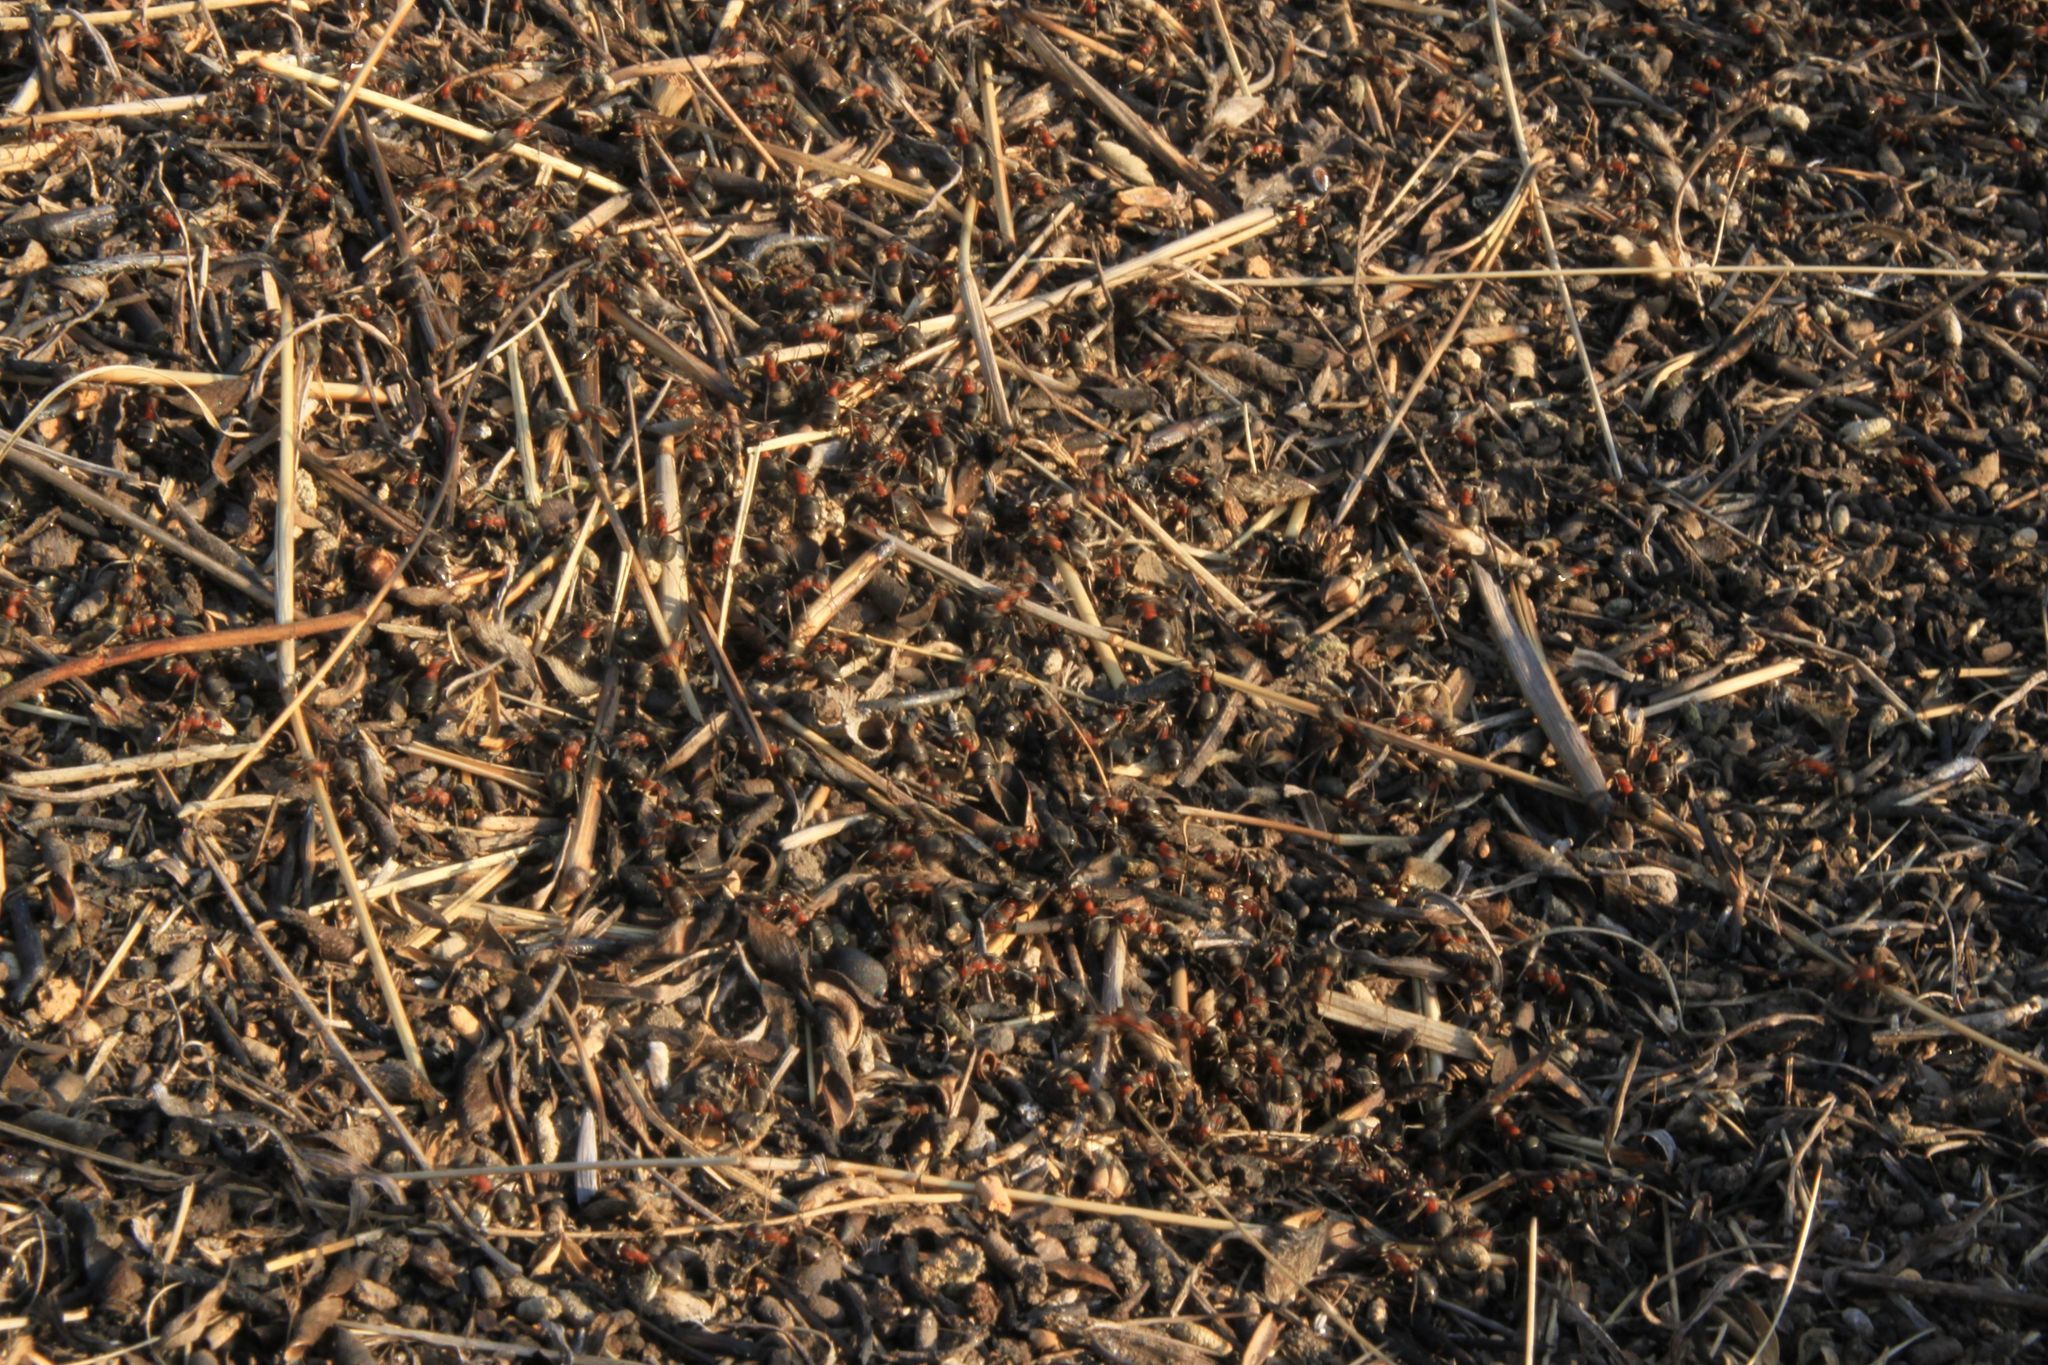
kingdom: Animalia
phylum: Arthropoda
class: Insecta
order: Hymenoptera
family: Formicidae
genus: Formica
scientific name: Formica rufa
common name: Red wood ant
